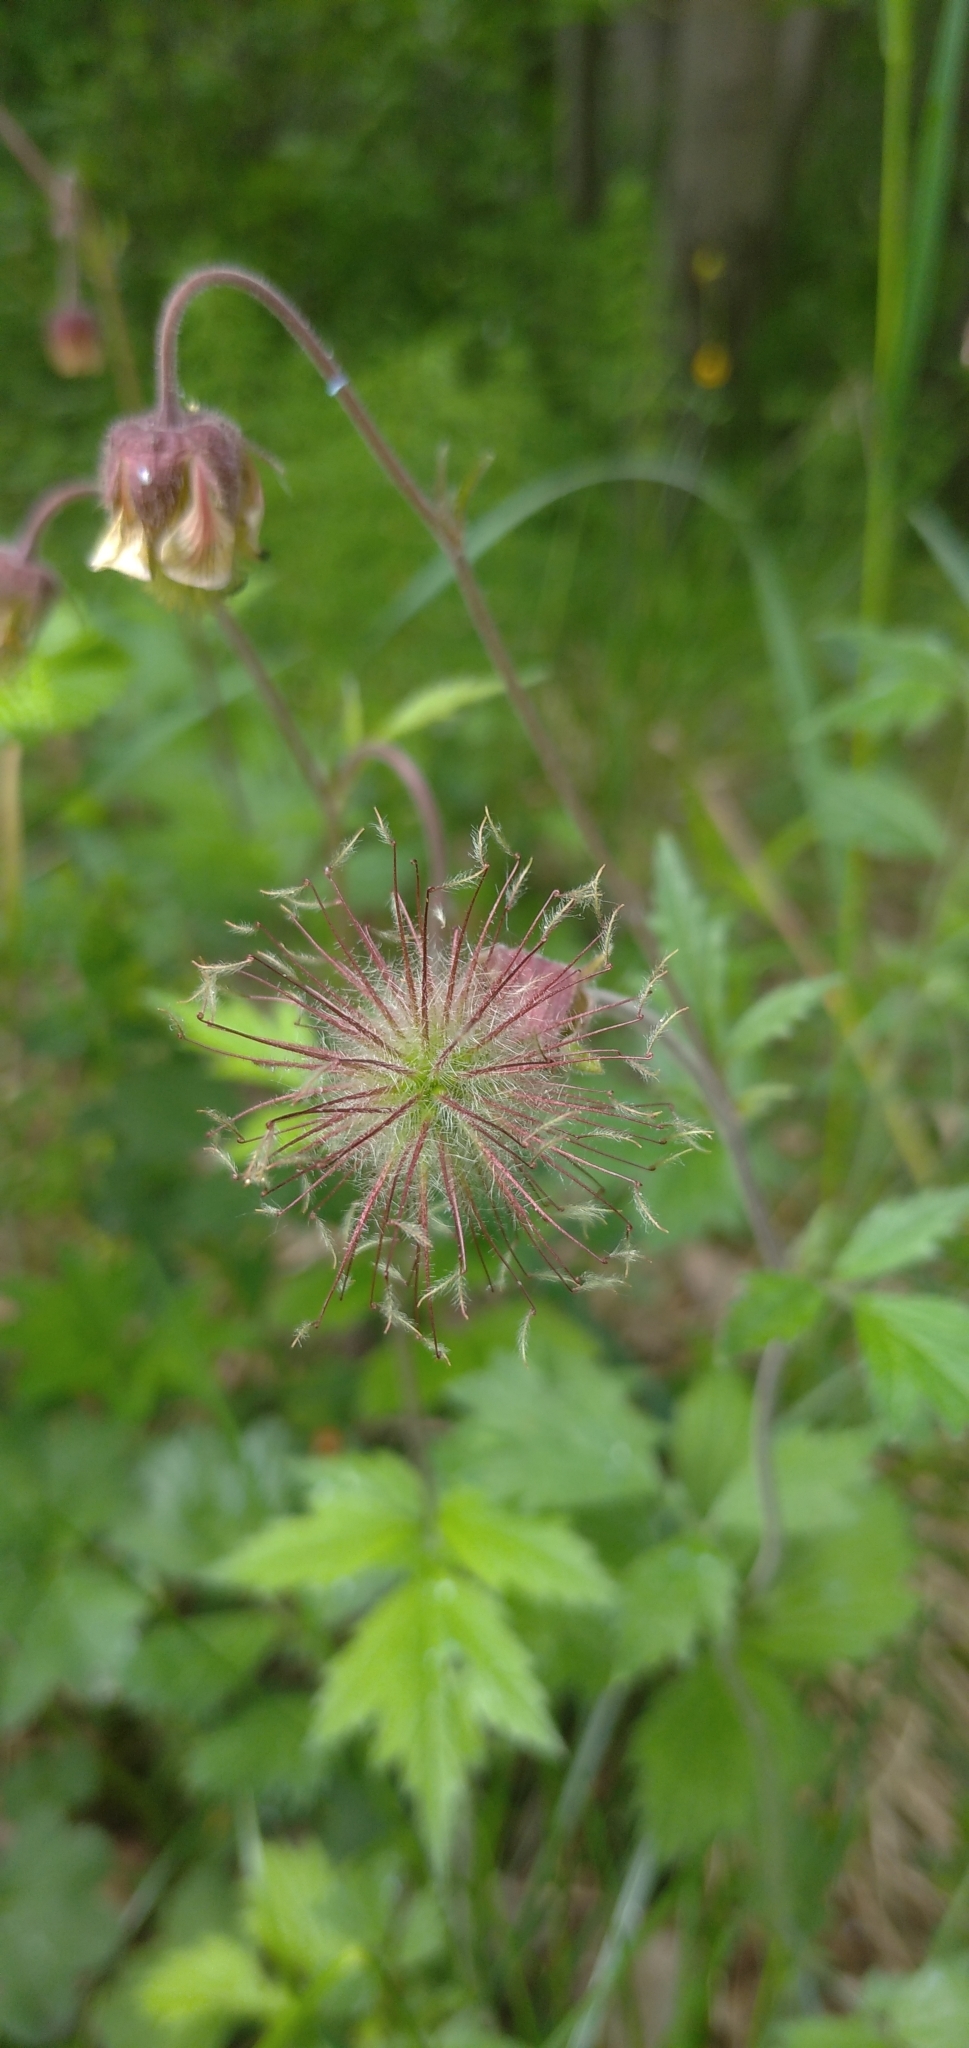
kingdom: Plantae
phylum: Tracheophyta
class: Magnoliopsida
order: Rosales
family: Rosaceae
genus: Geum
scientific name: Geum rivale
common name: Water avens
